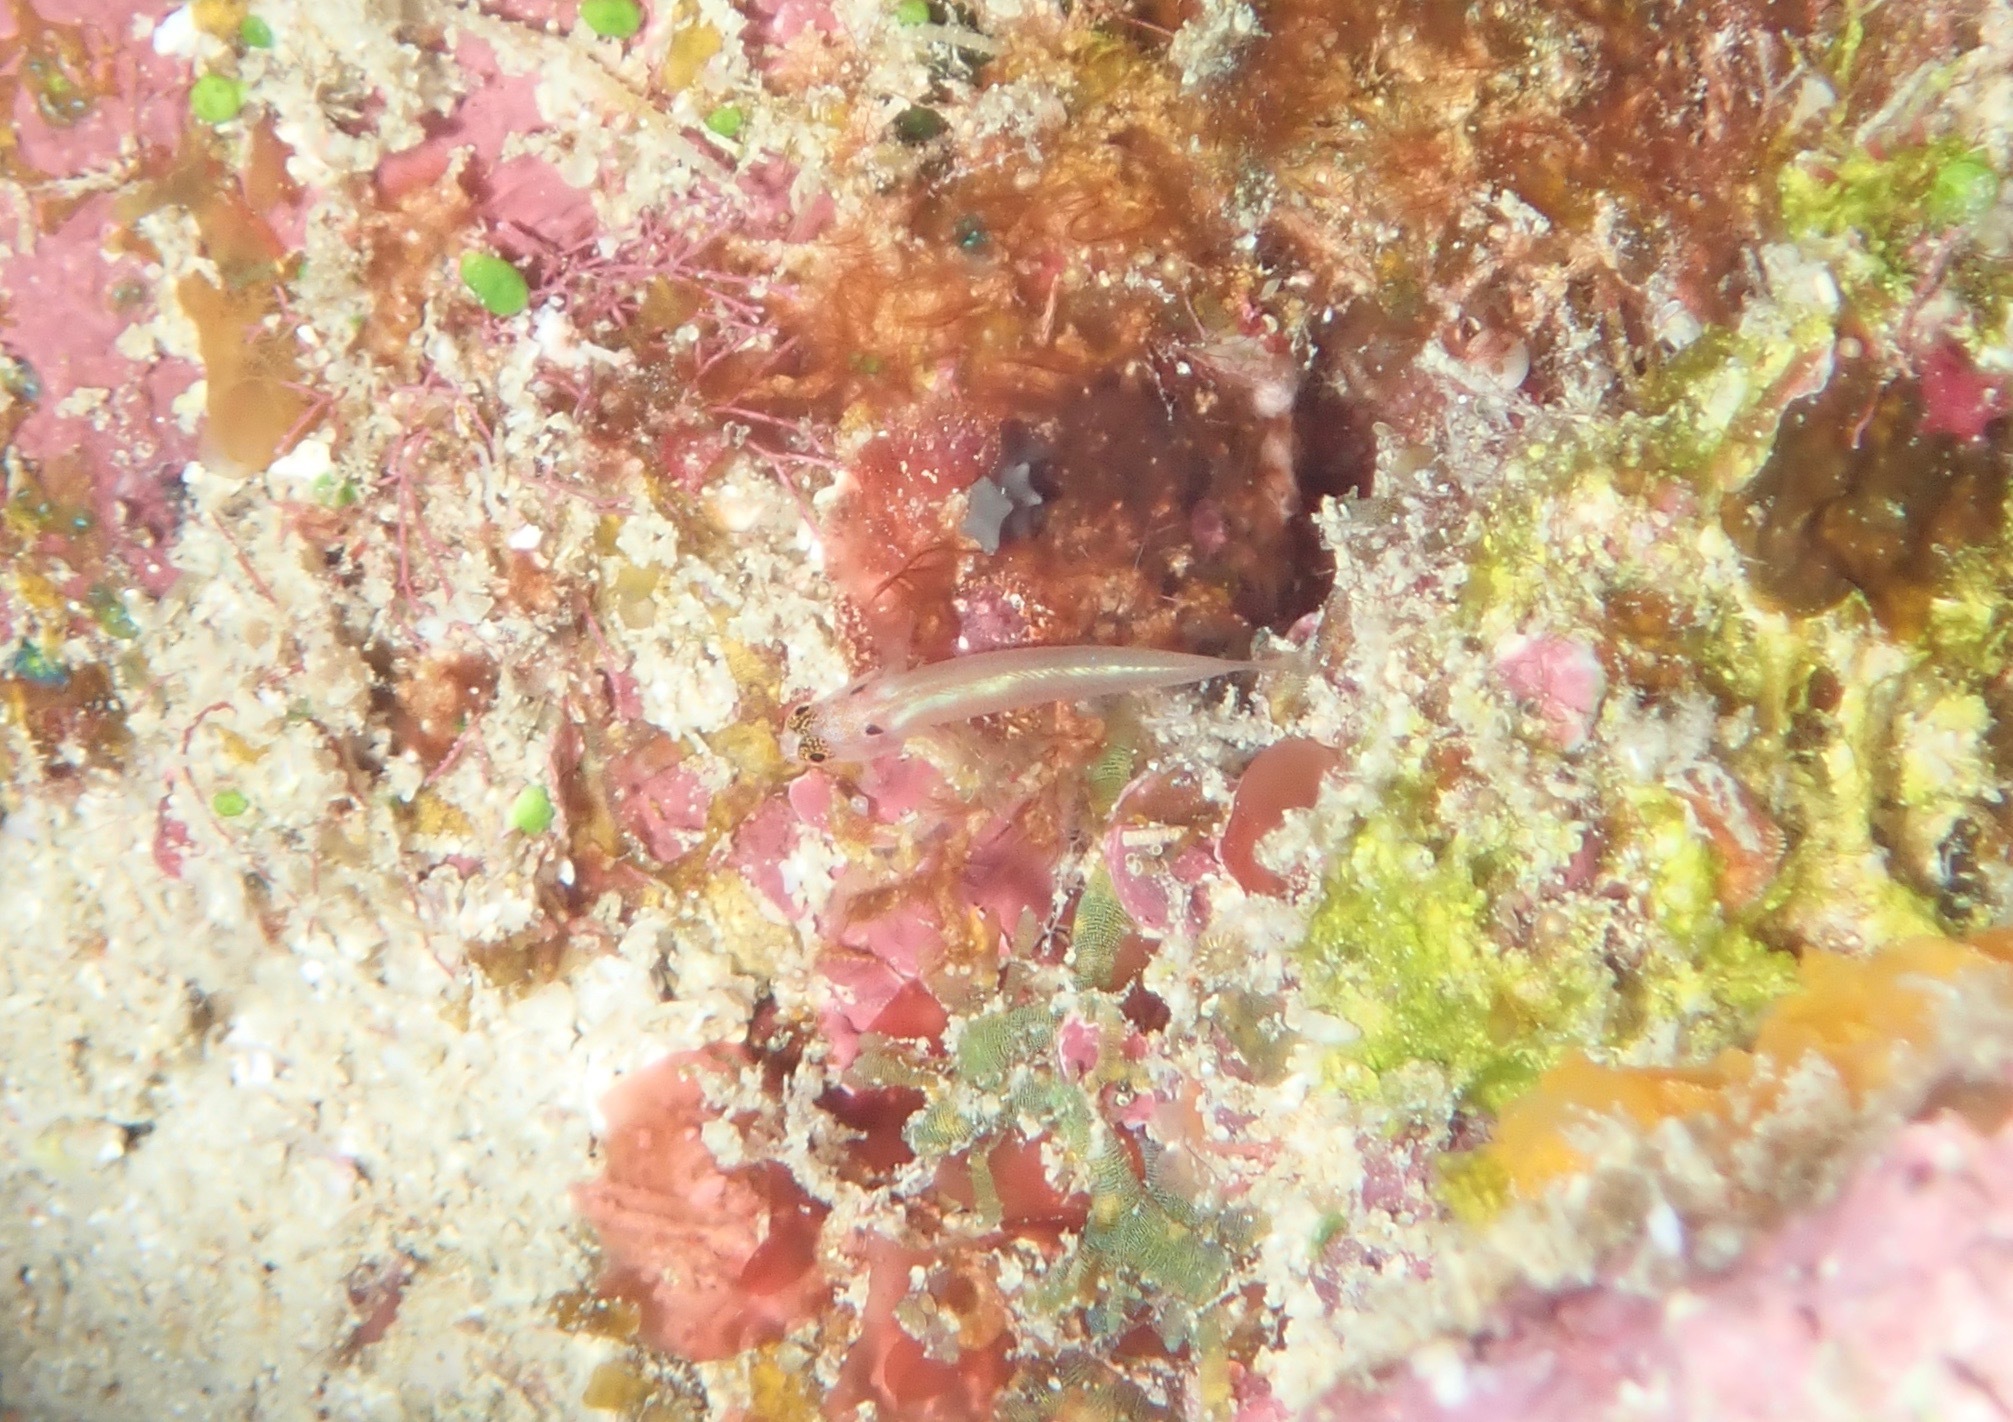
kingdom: Animalia
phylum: Chordata
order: Perciformes
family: Gobiidae
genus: Eviota
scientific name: Eviota karaspila
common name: Eastern headspot dwarfgoby
